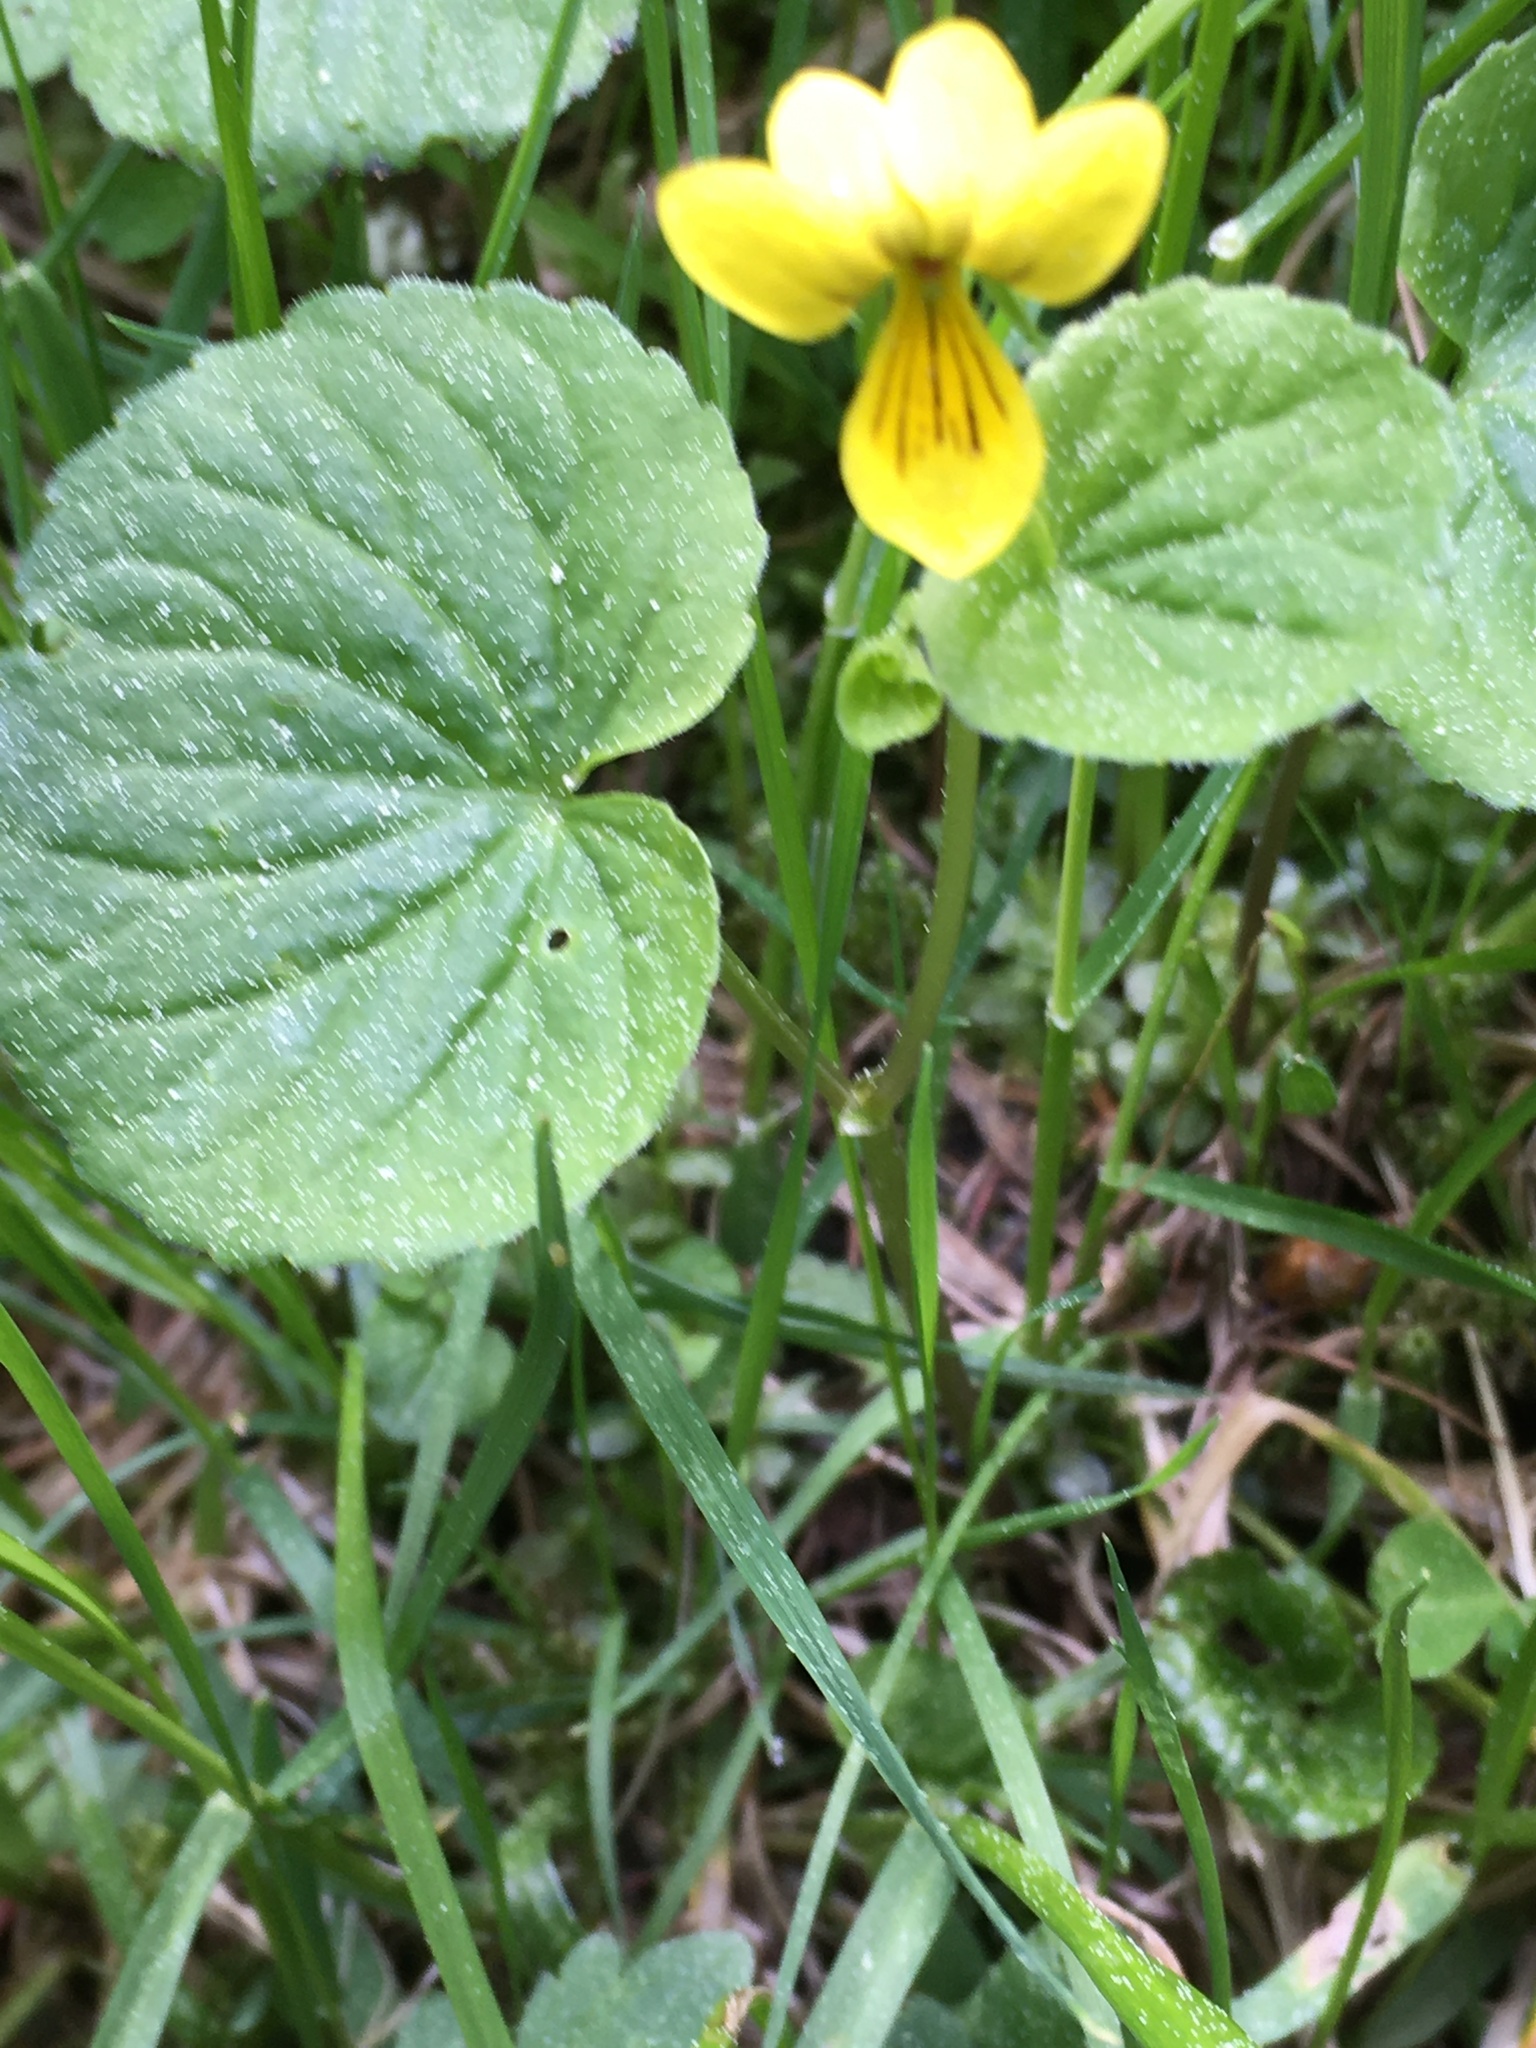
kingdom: Plantae
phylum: Tracheophyta
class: Magnoliopsida
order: Malpighiales
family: Violaceae
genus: Viola
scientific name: Viola biflora
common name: Alpine yellow violet
